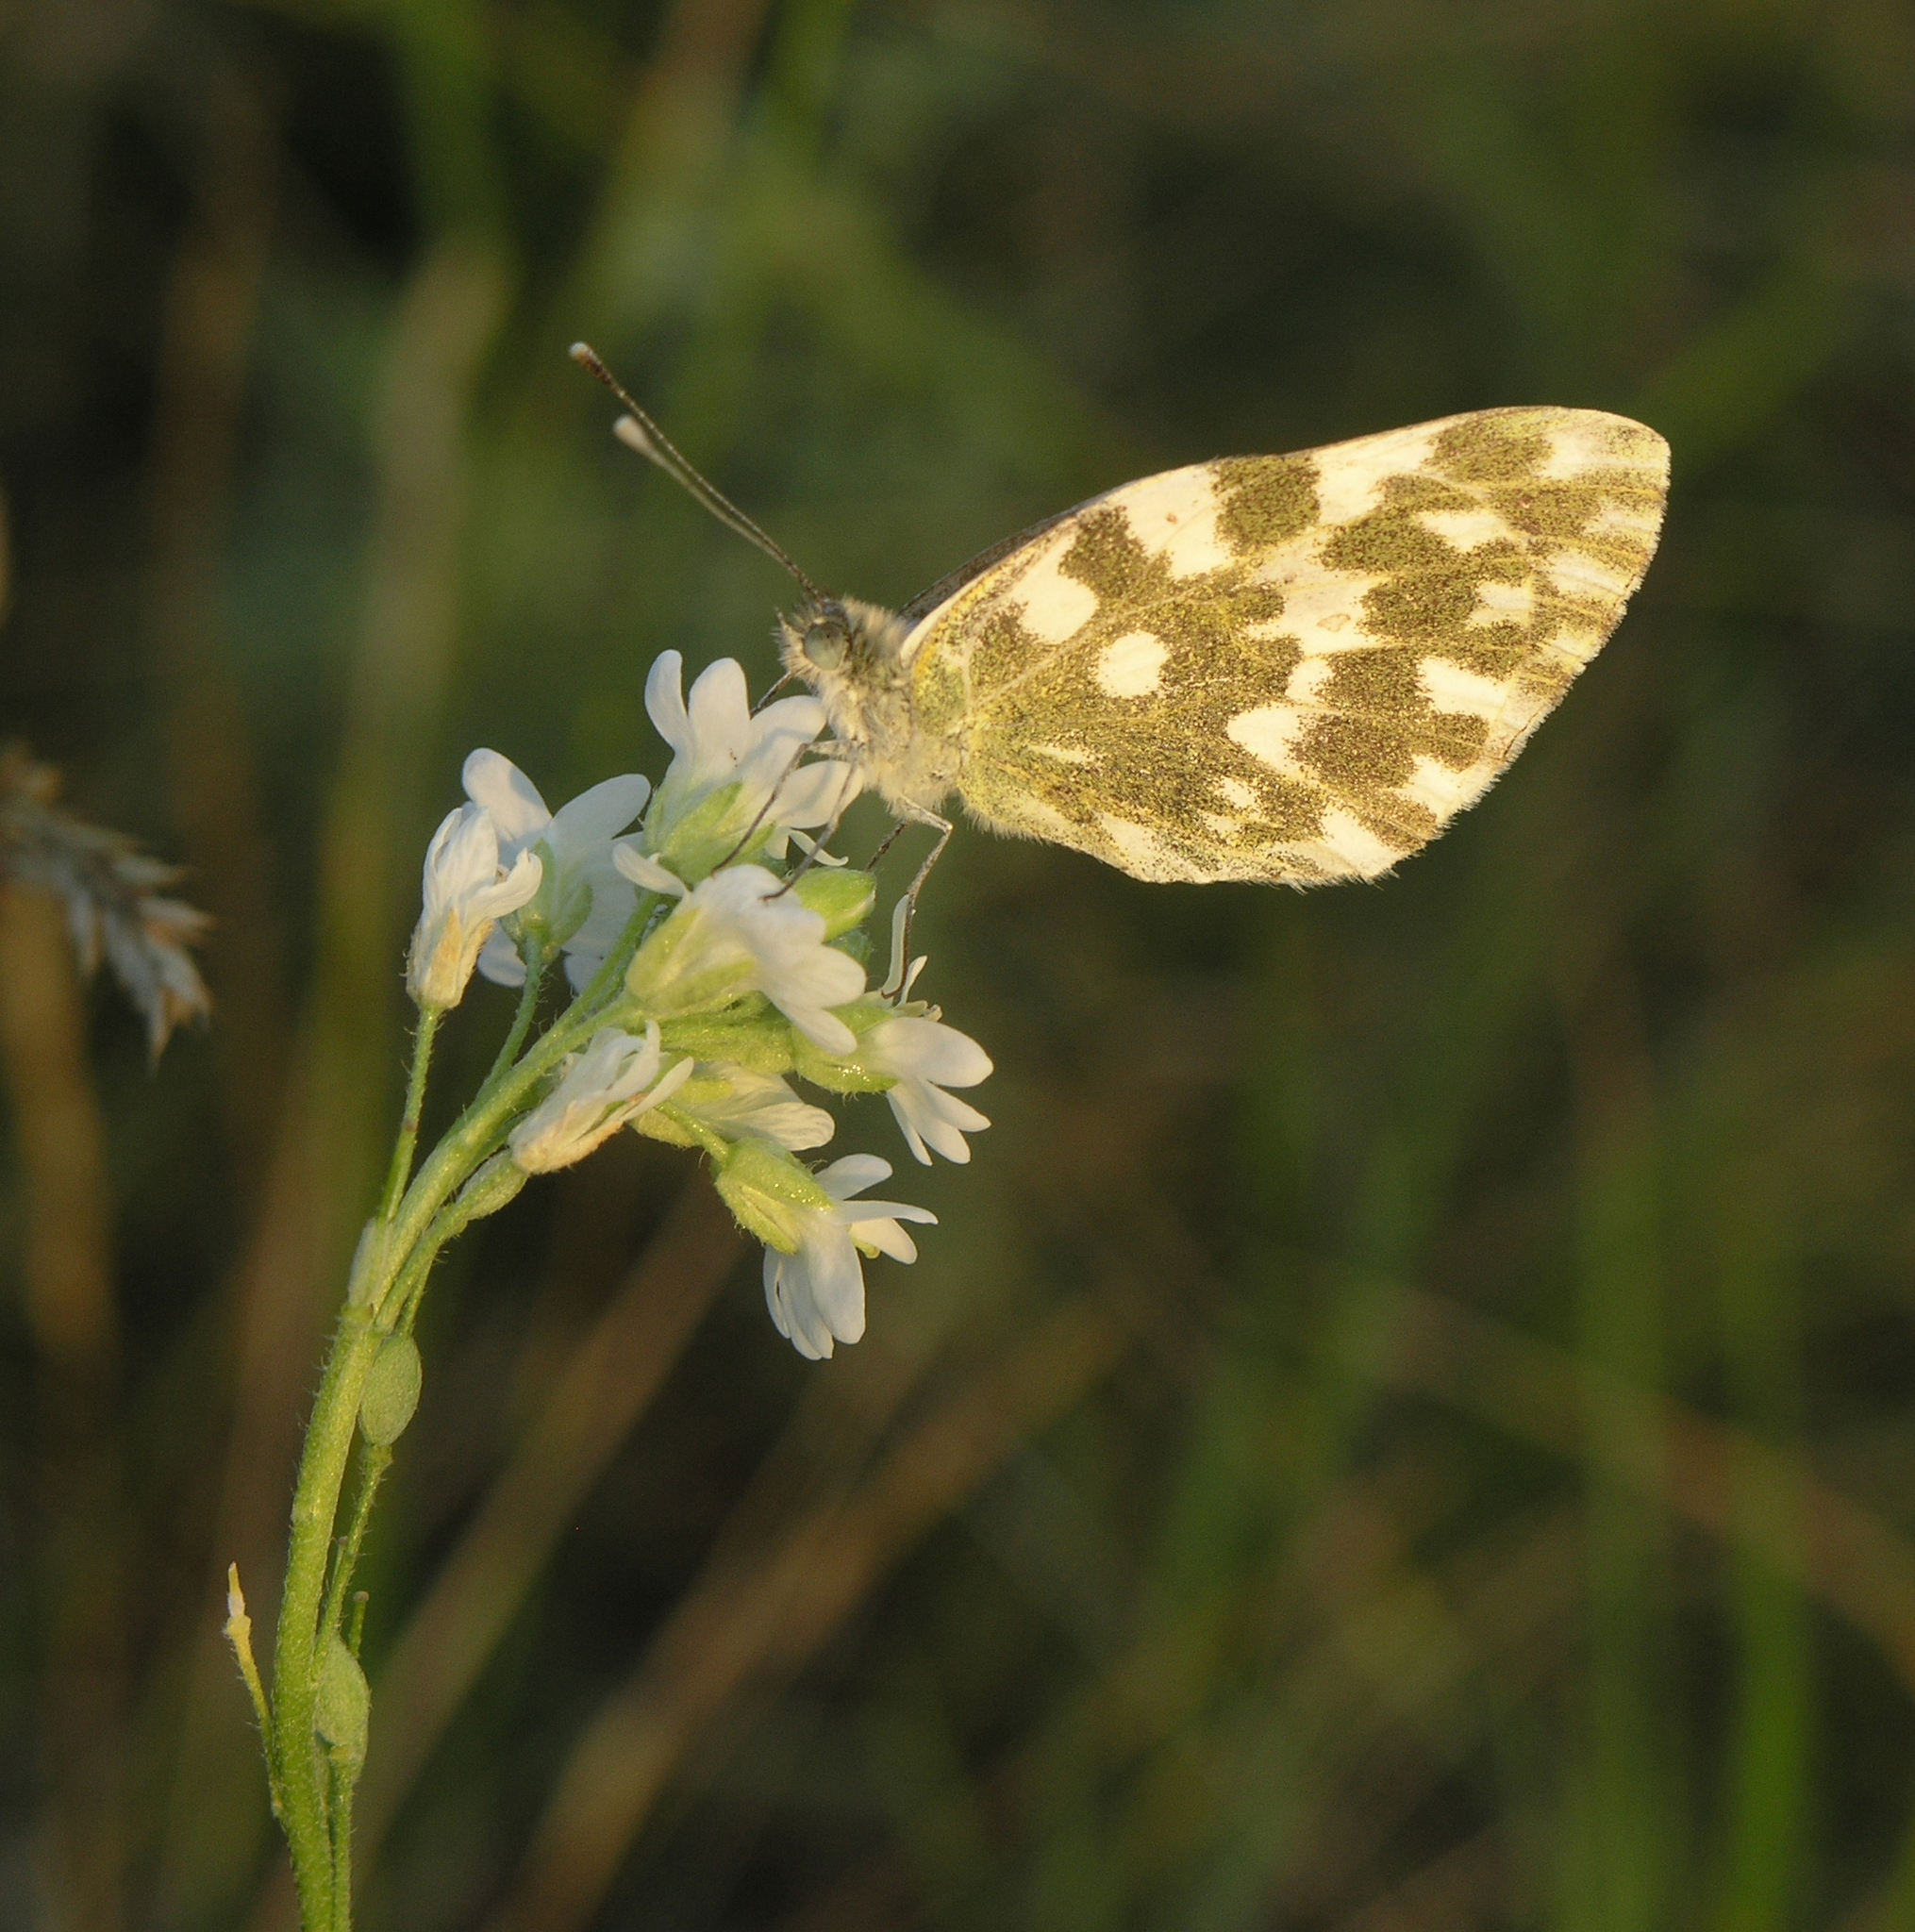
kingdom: Animalia
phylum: Arthropoda
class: Insecta
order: Lepidoptera
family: Pieridae
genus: Pontia
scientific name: Pontia edusa
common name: Eastern bath white
